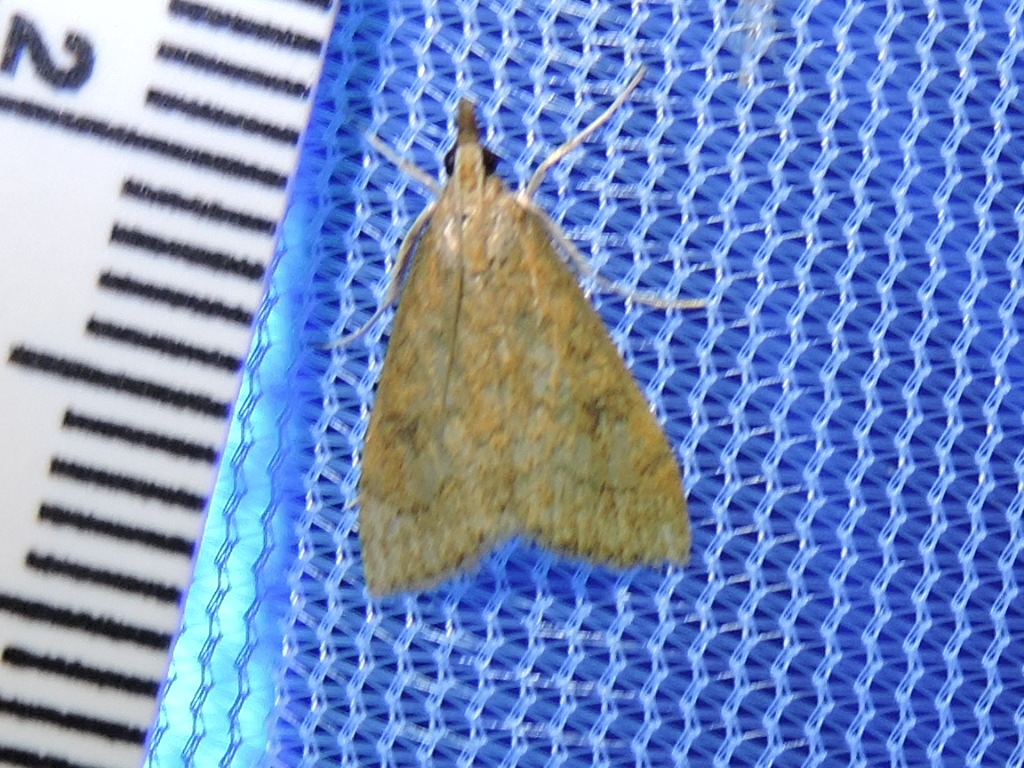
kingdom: Animalia
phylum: Arthropoda
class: Insecta
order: Lepidoptera
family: Crambidae
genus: Udea
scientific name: Udea rubigalis
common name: Celery leaftier moth
